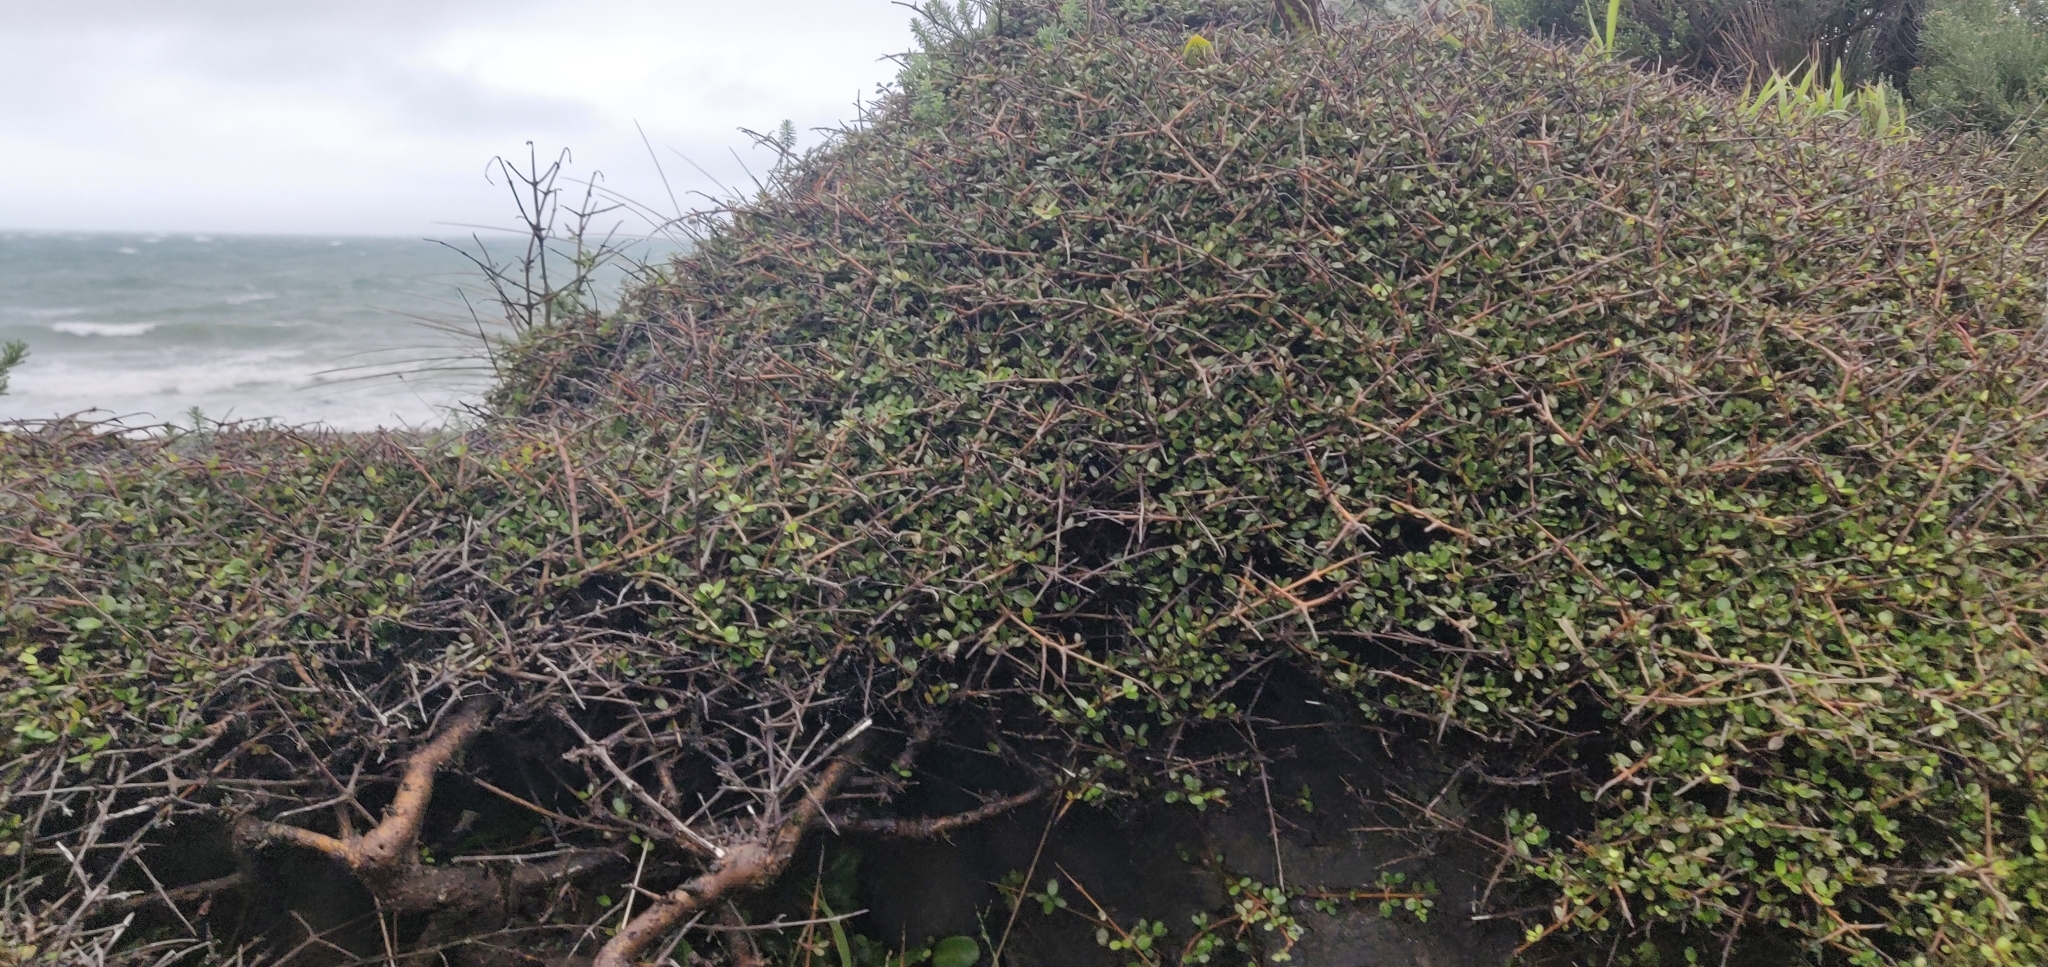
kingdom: Plantae
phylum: Tracheophyta
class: Magnoliopsida
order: Gentianales
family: Rubiaceae
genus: Coprosma
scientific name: Coprosma propinqua
